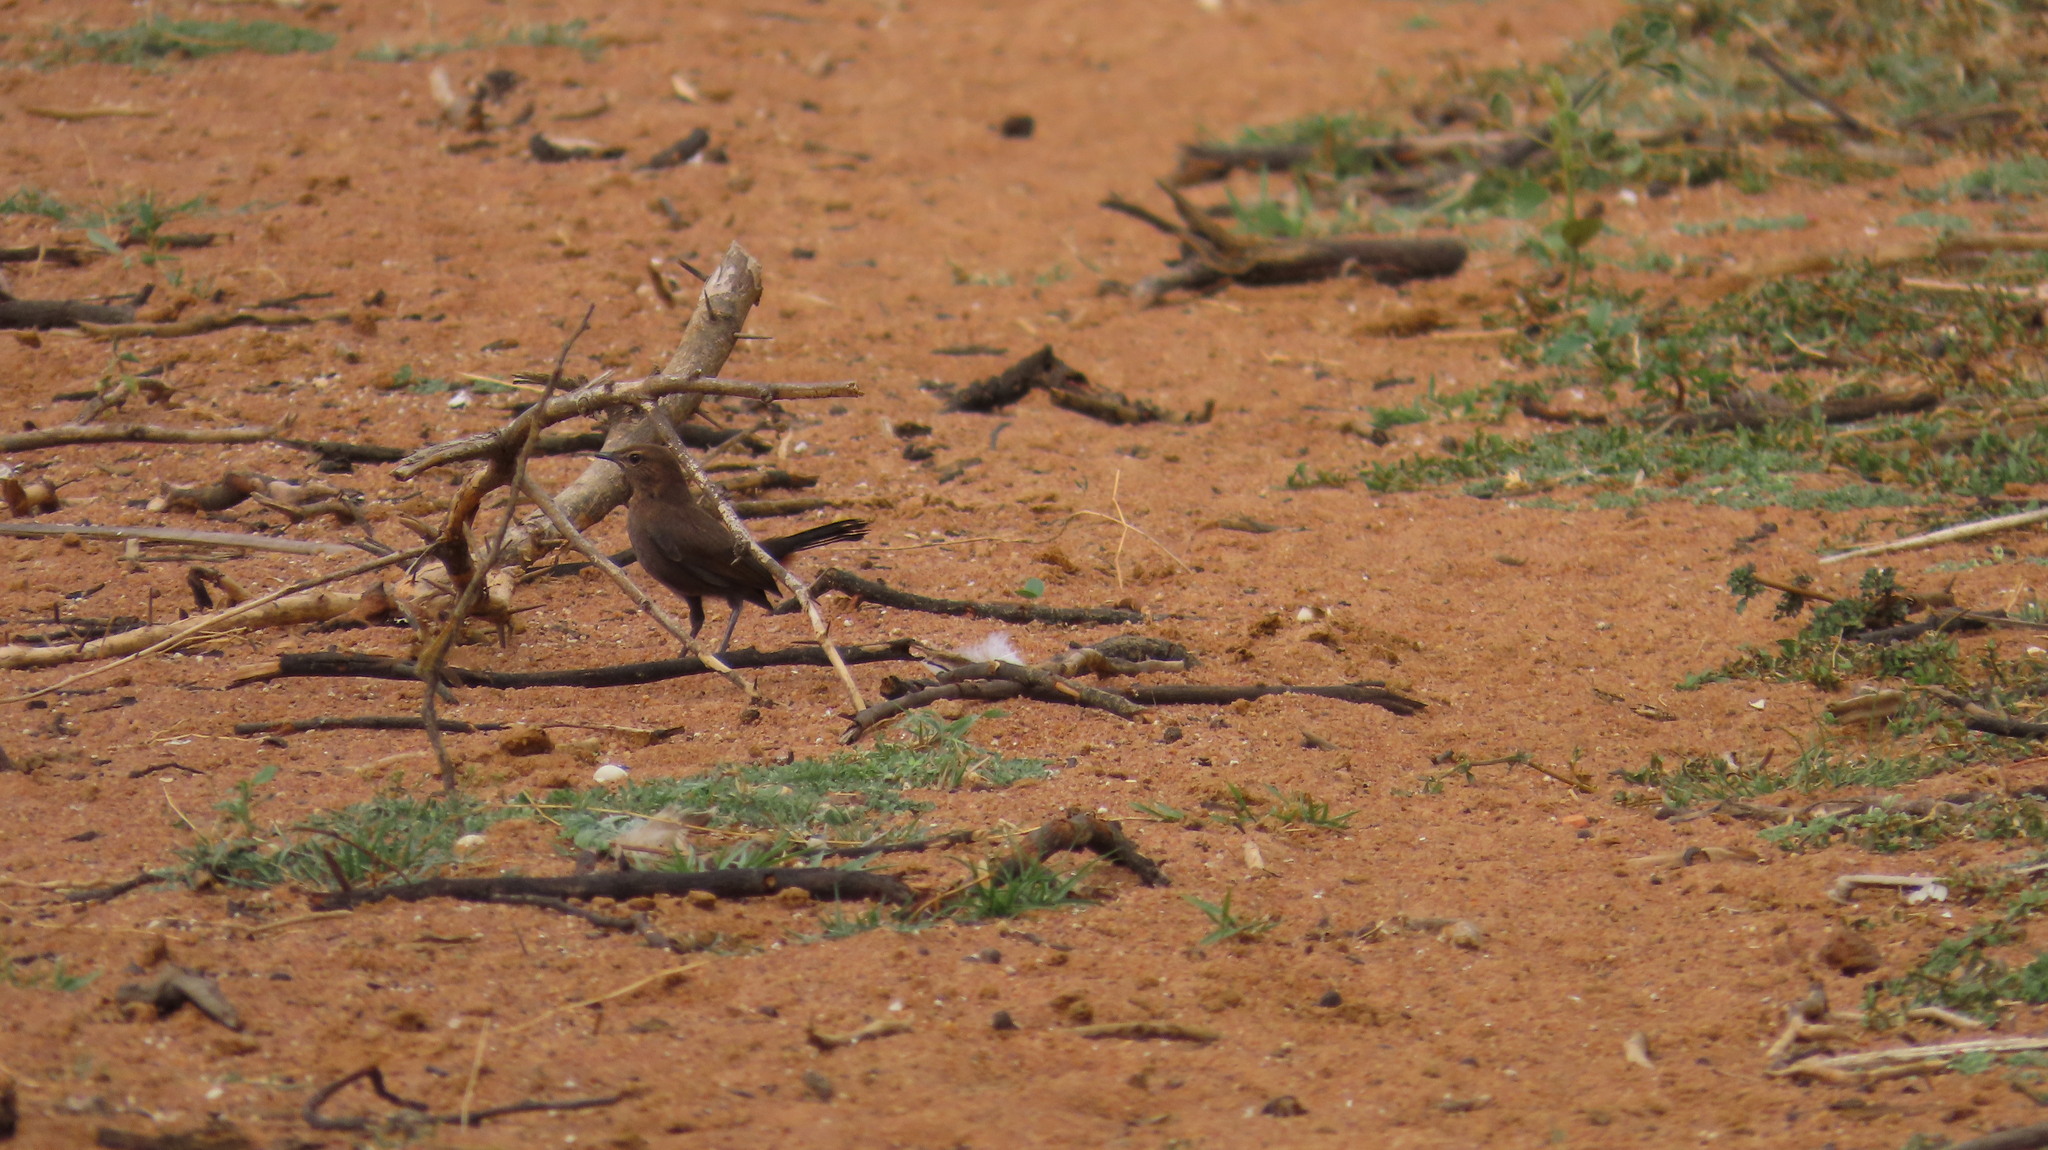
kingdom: Animalia
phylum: Chordata
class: Aves
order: Passeriformes
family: Muscicapidae
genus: Saxicoloides
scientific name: Saxicoloides fulicatus
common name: Indian robin
